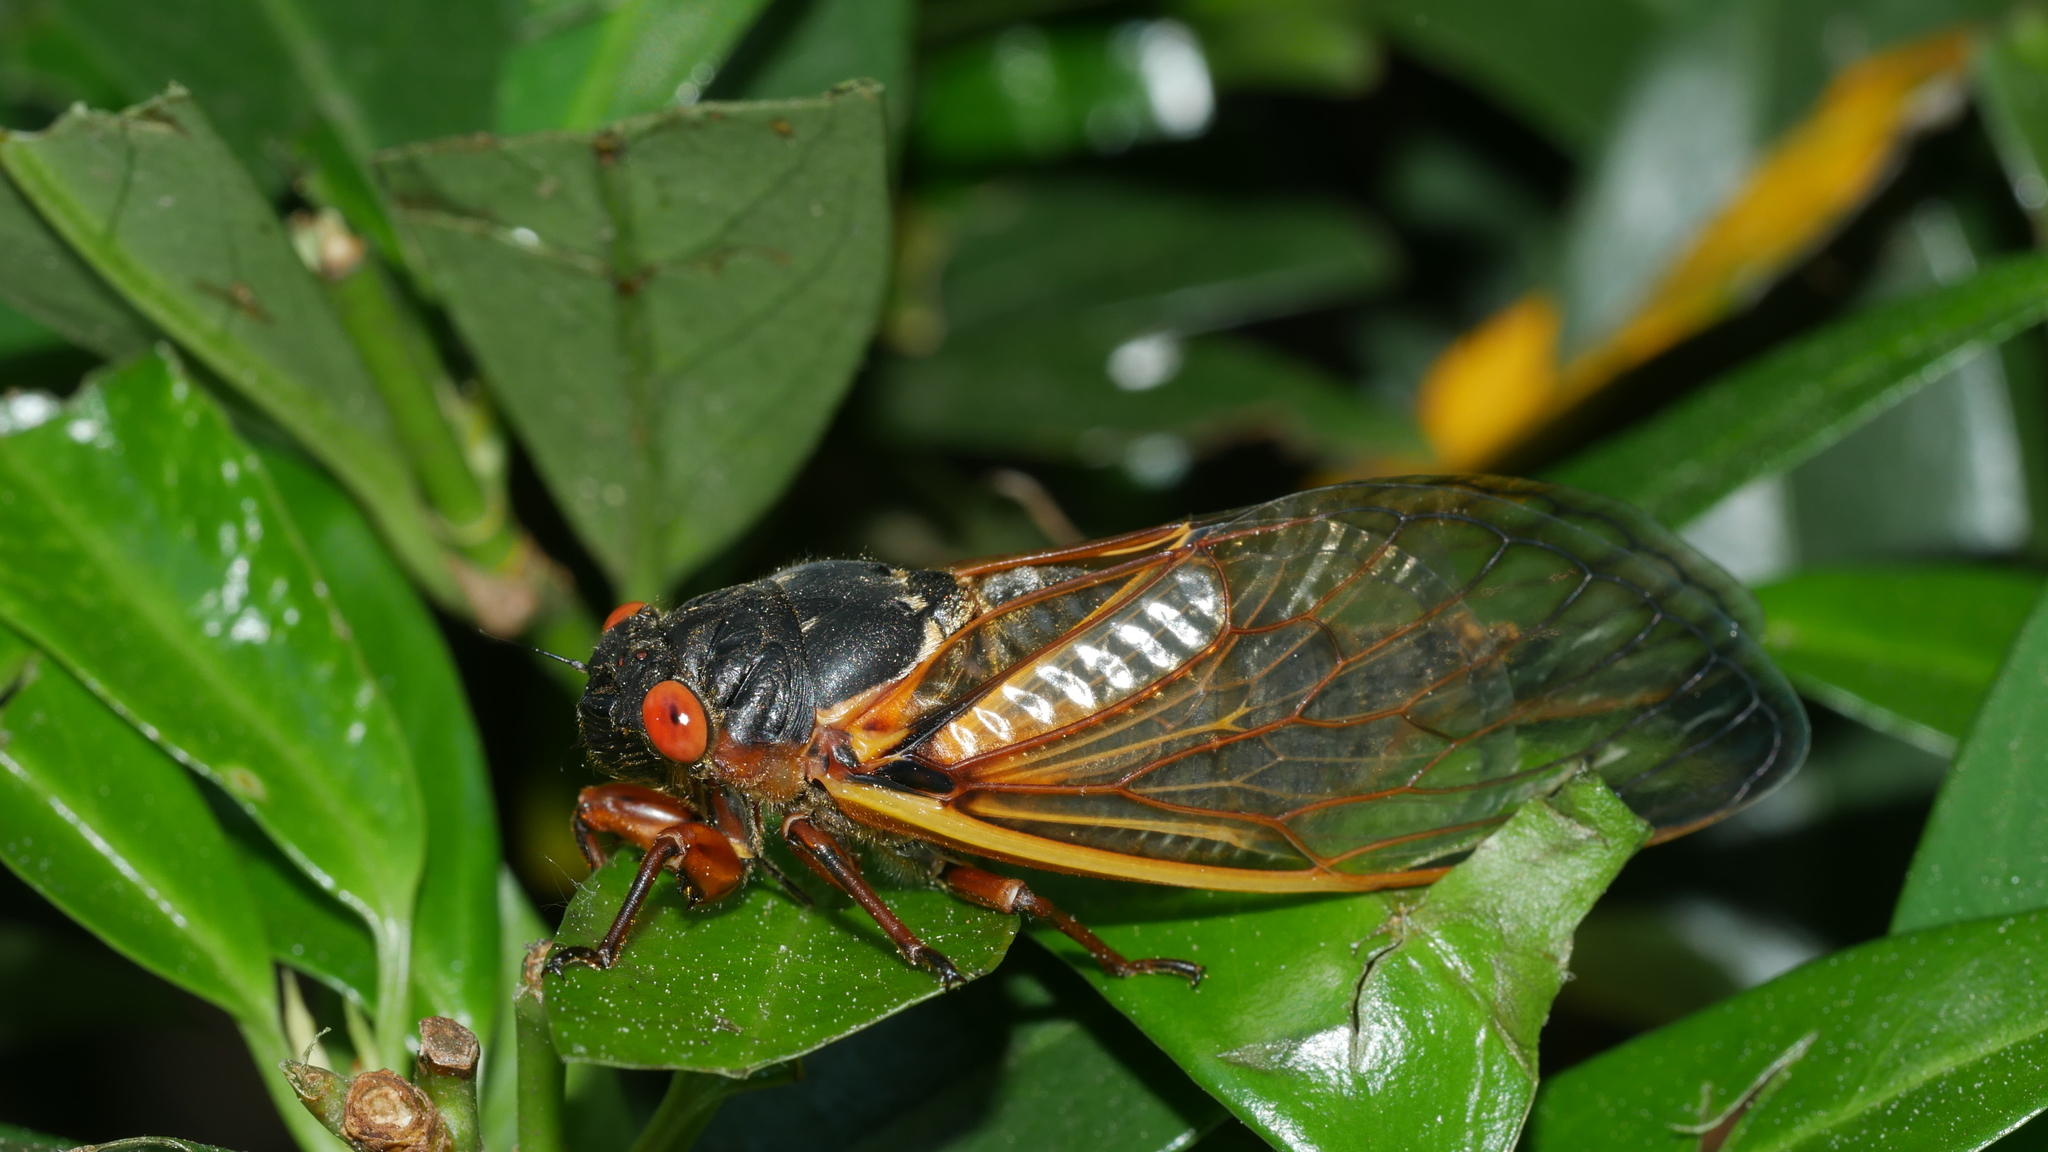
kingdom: Animalia
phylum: Arthropoda
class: Insecta
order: Hemiptera
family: Cicadidae
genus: Magicicada
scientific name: Magicicada septendecim
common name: Periodical cicada
